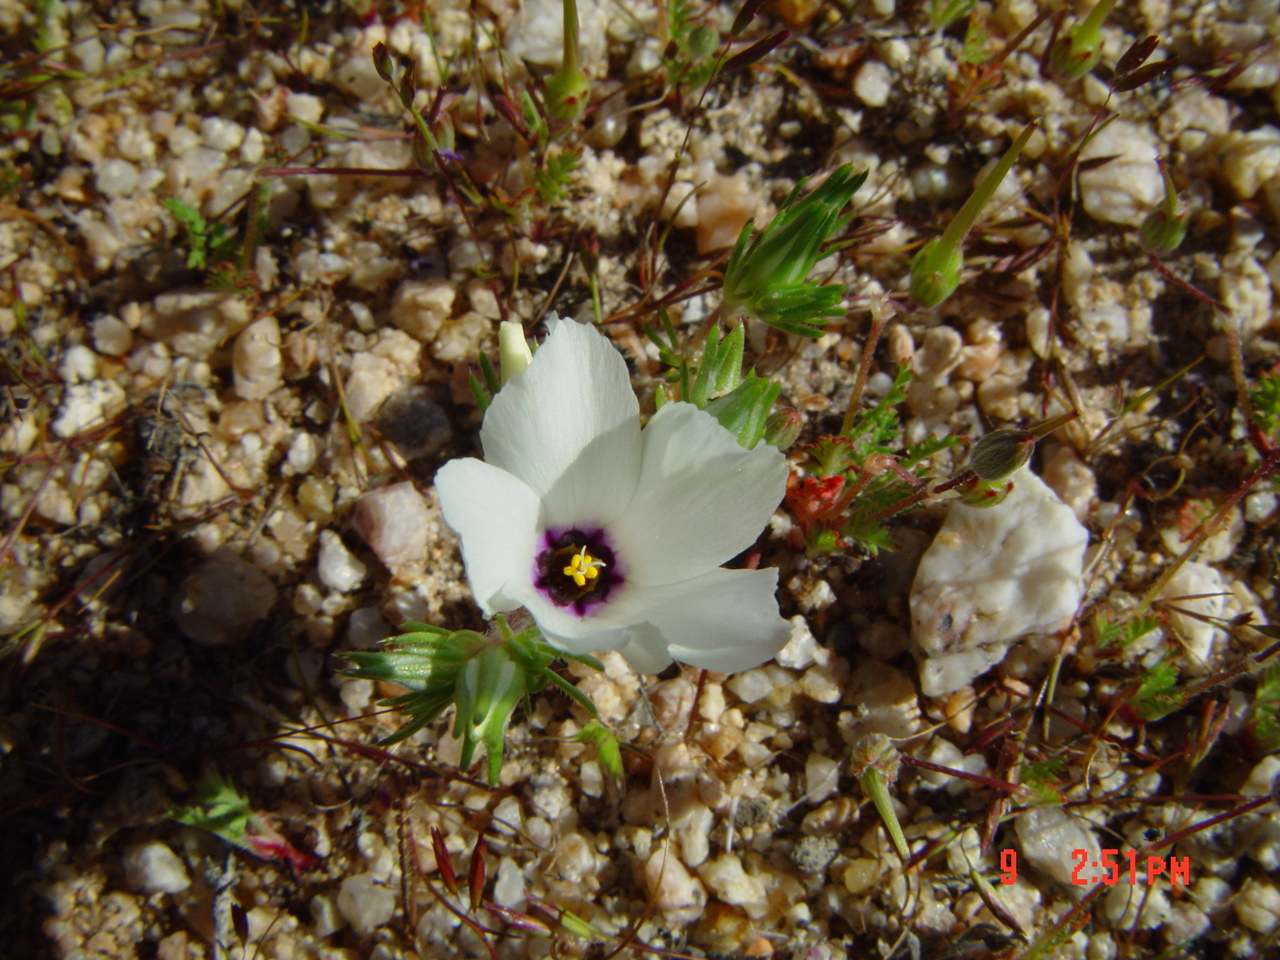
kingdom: Plantae
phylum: Tracheophyta
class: Magnoliopsida
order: Ericales
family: Polemoniaceae
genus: Linanthus
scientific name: Linanthus parryae
